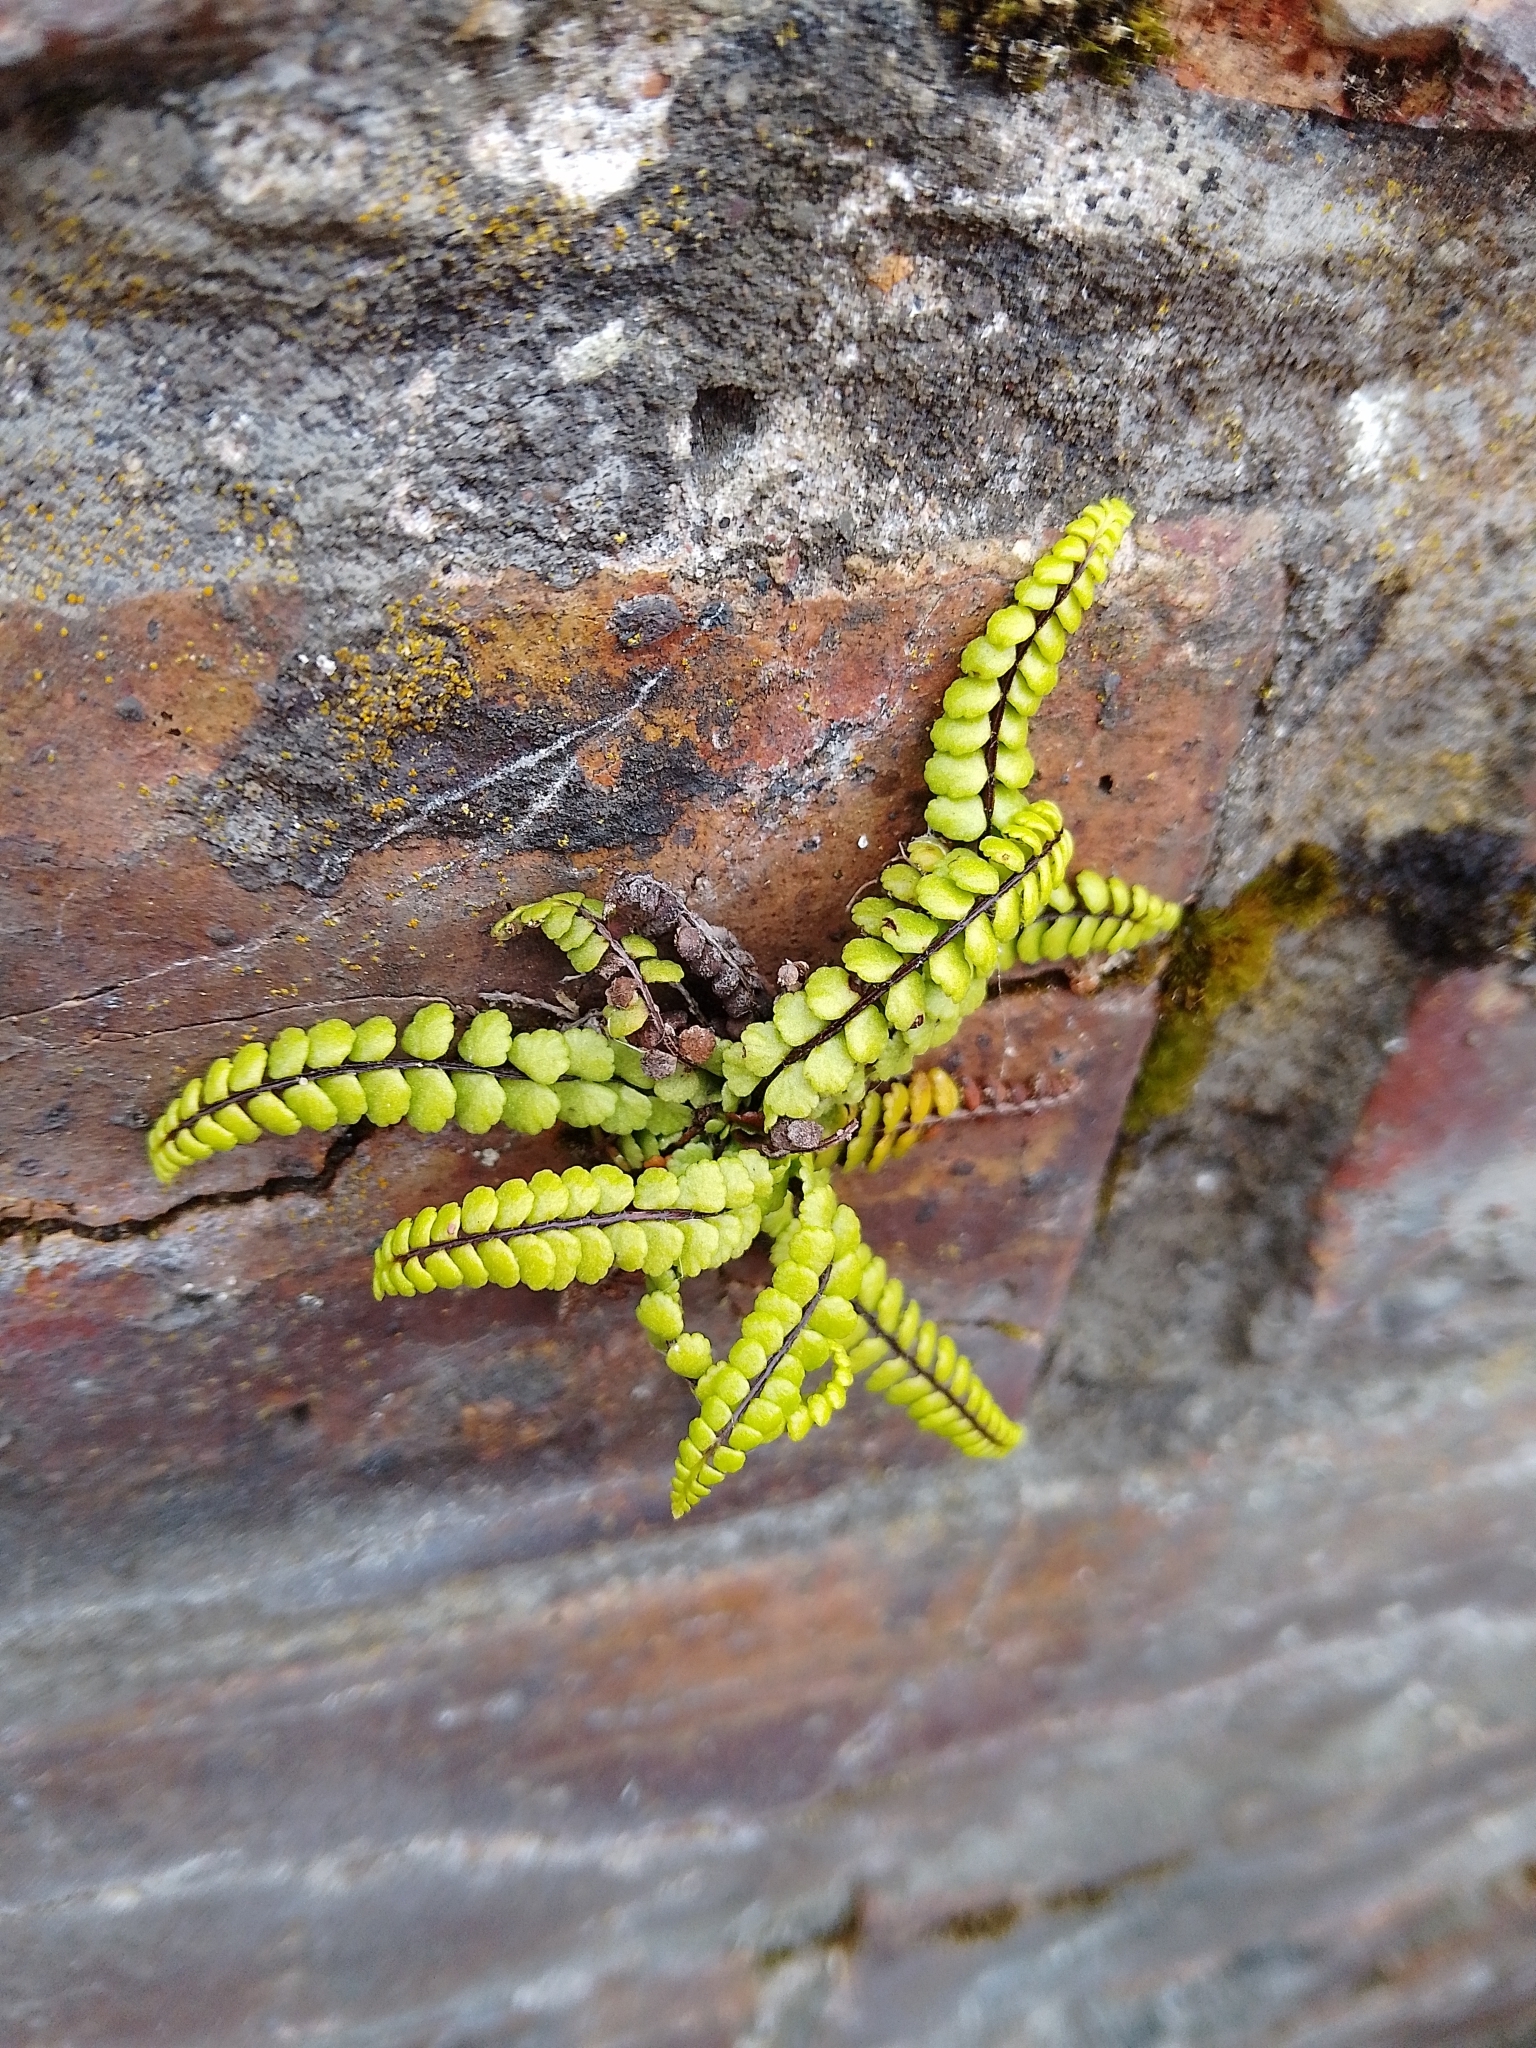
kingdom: Plantae
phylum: Tracheophyta
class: Polypodiopsida
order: Polypodiales
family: Aspleniaceae
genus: Asplenium
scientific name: Asplenium trichomanes
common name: Maidenhair spleenwort
